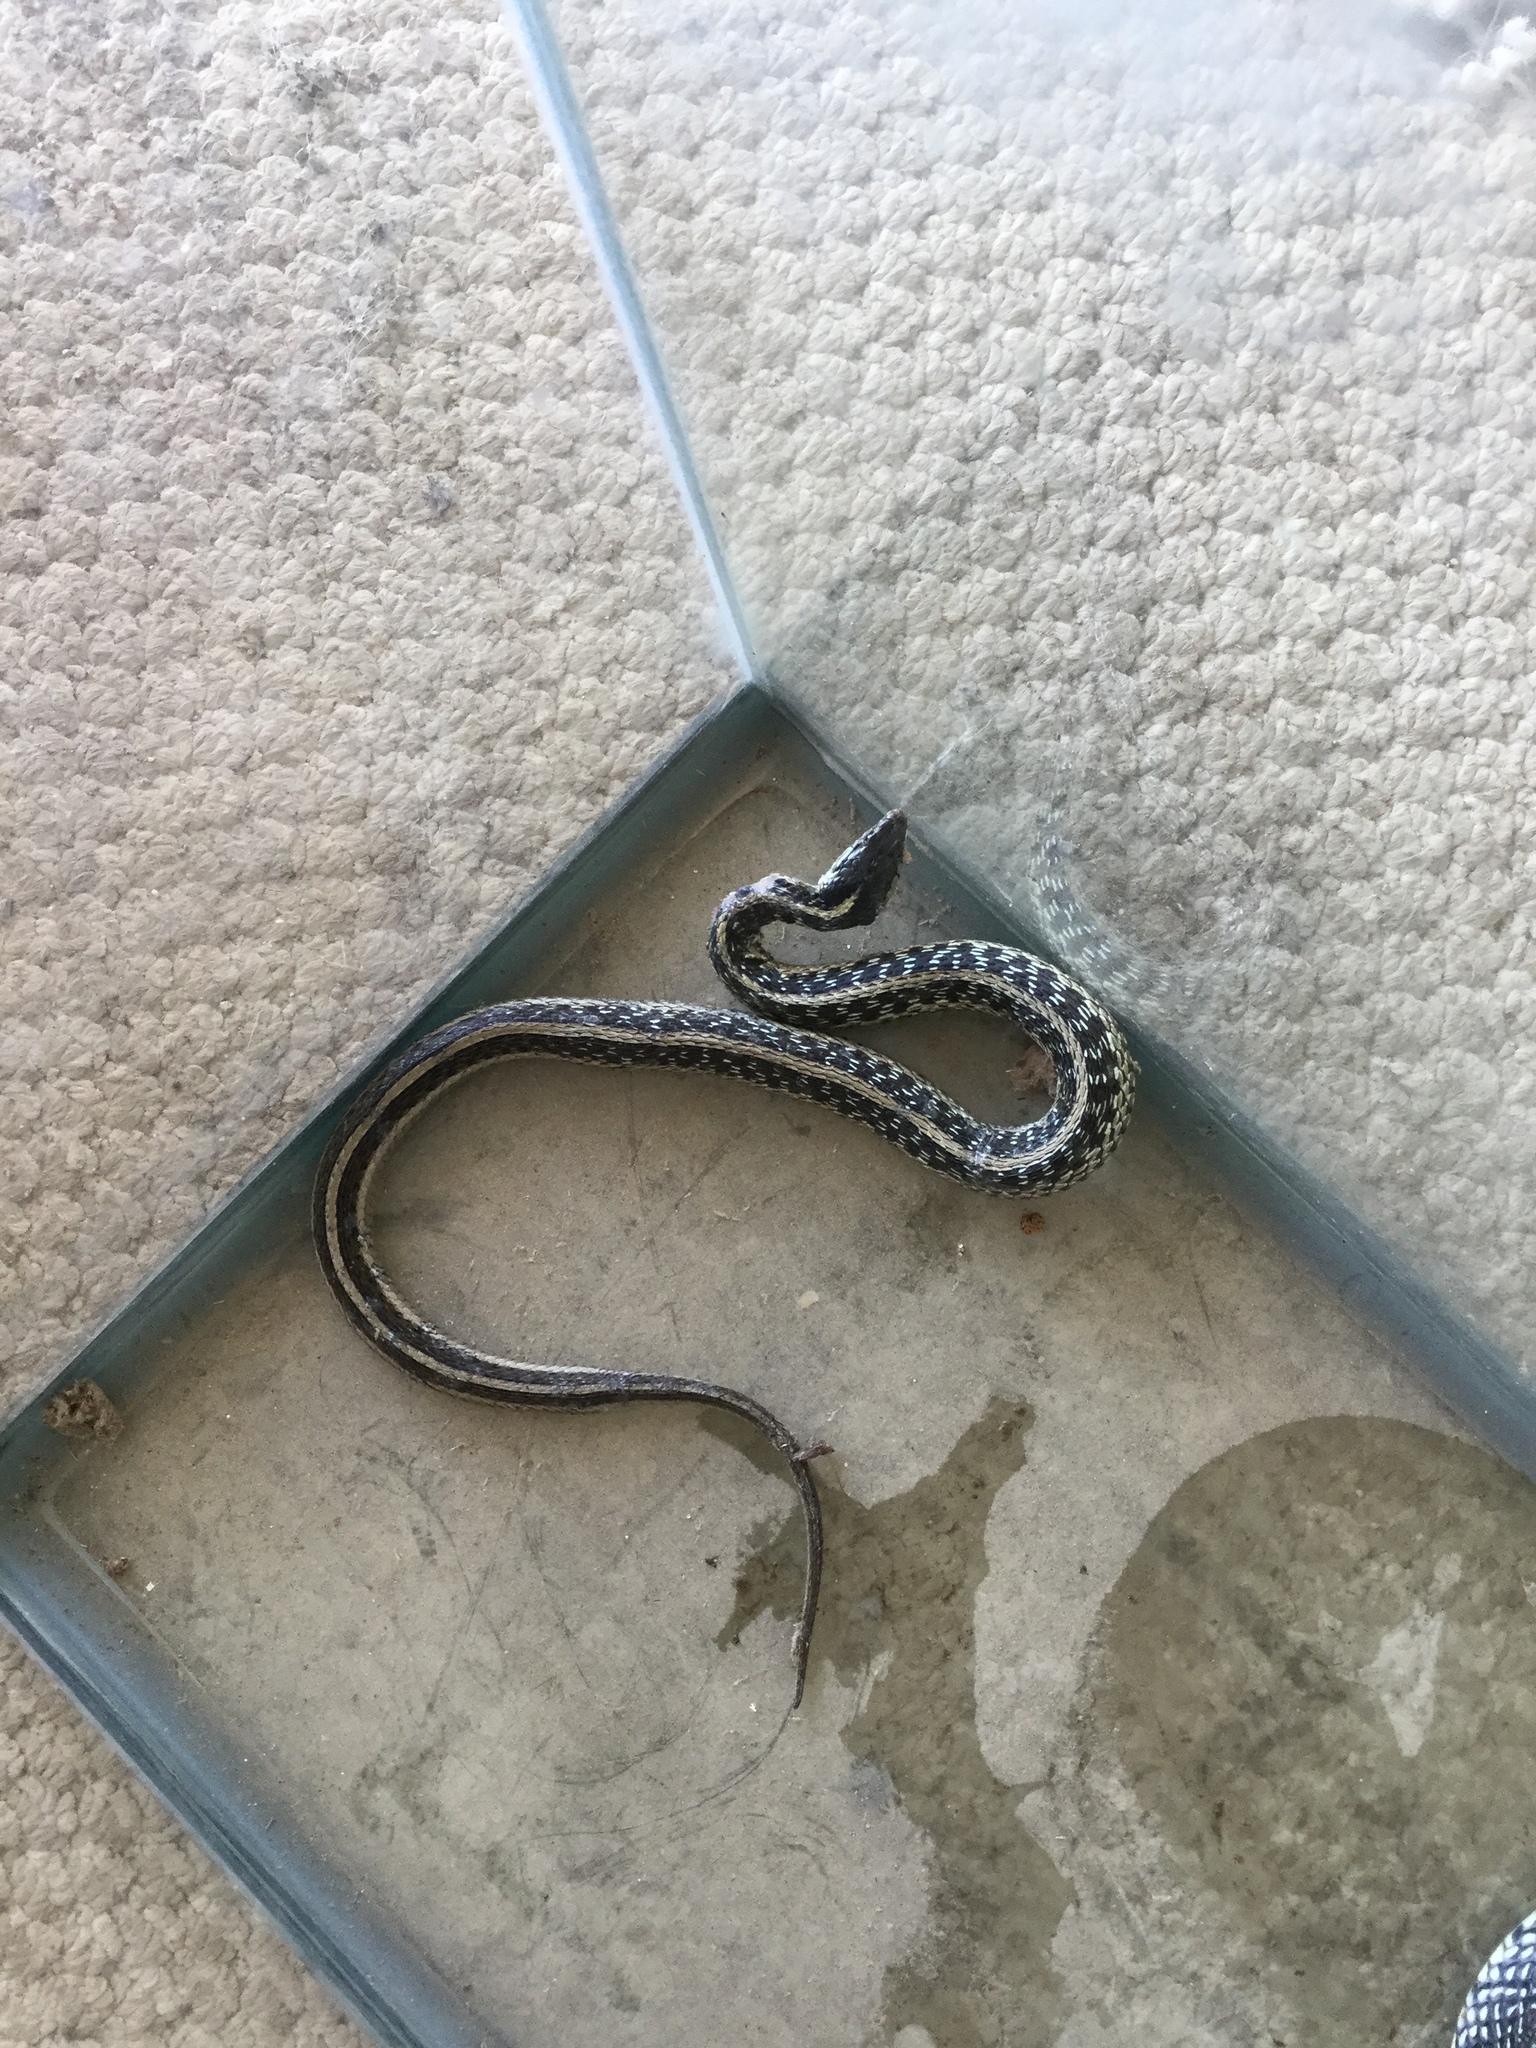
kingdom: Animalia
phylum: Chordata
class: Squamata
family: Colubridae
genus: Thamnophis
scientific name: Thamnophis sirtalis
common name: Common garter snake
